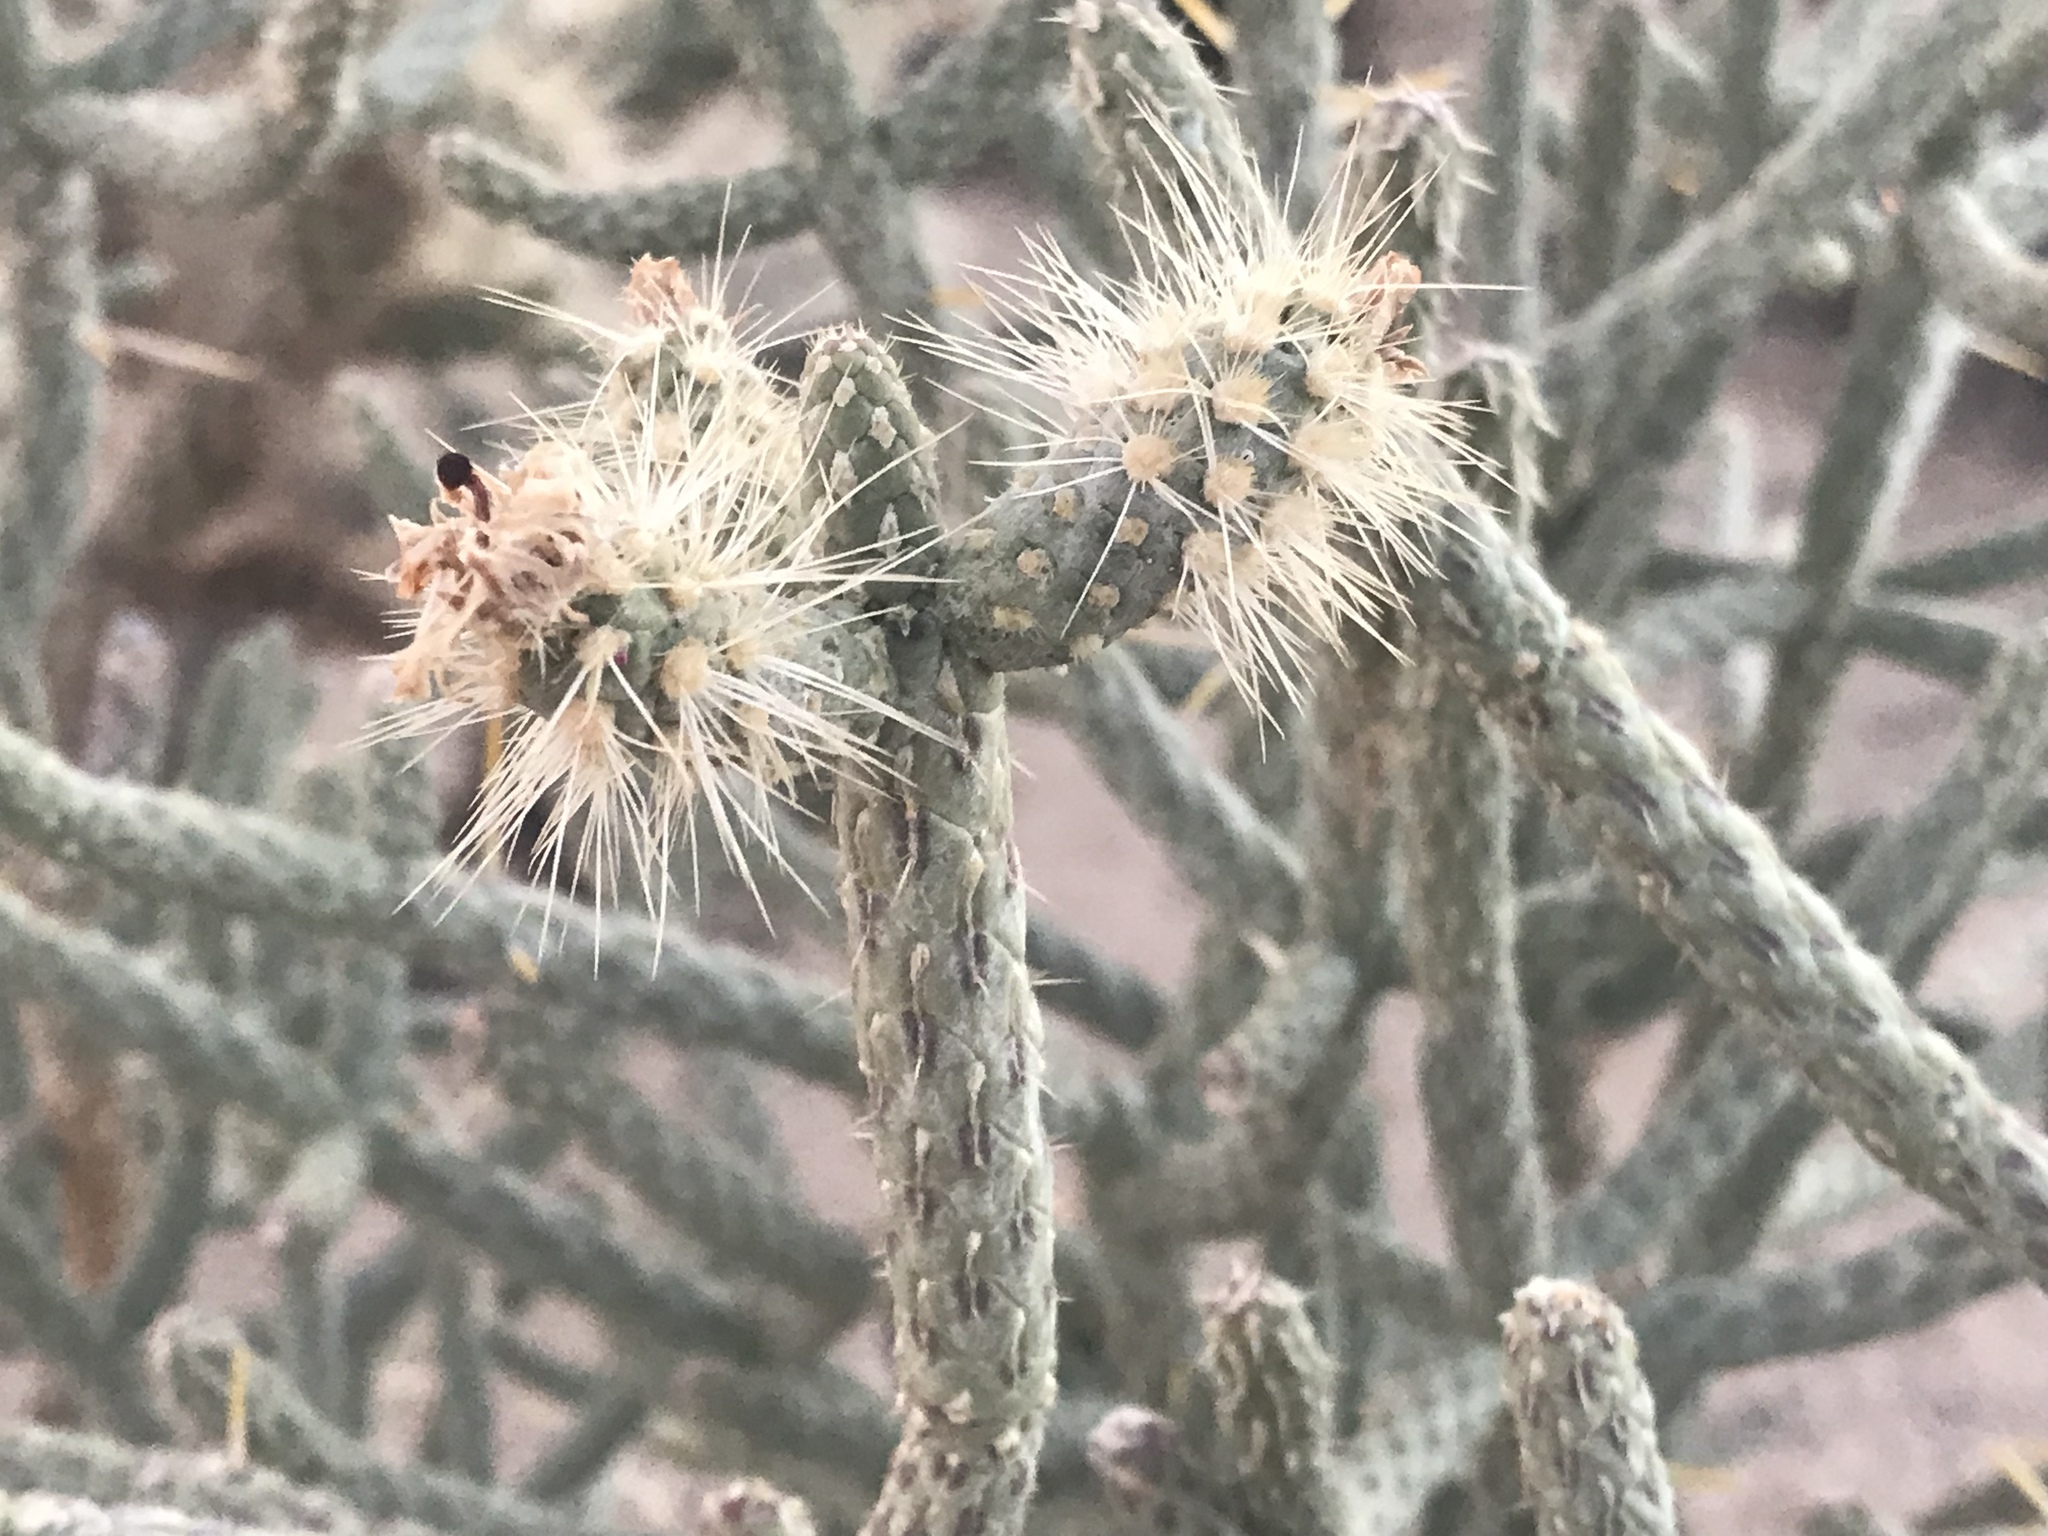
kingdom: Plantae
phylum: Tracheophyta
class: Magnoliopsida
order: Caryophyllales
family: Cactaceae
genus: Cylindropuntia
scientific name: Cylindropuntia ramosissima
